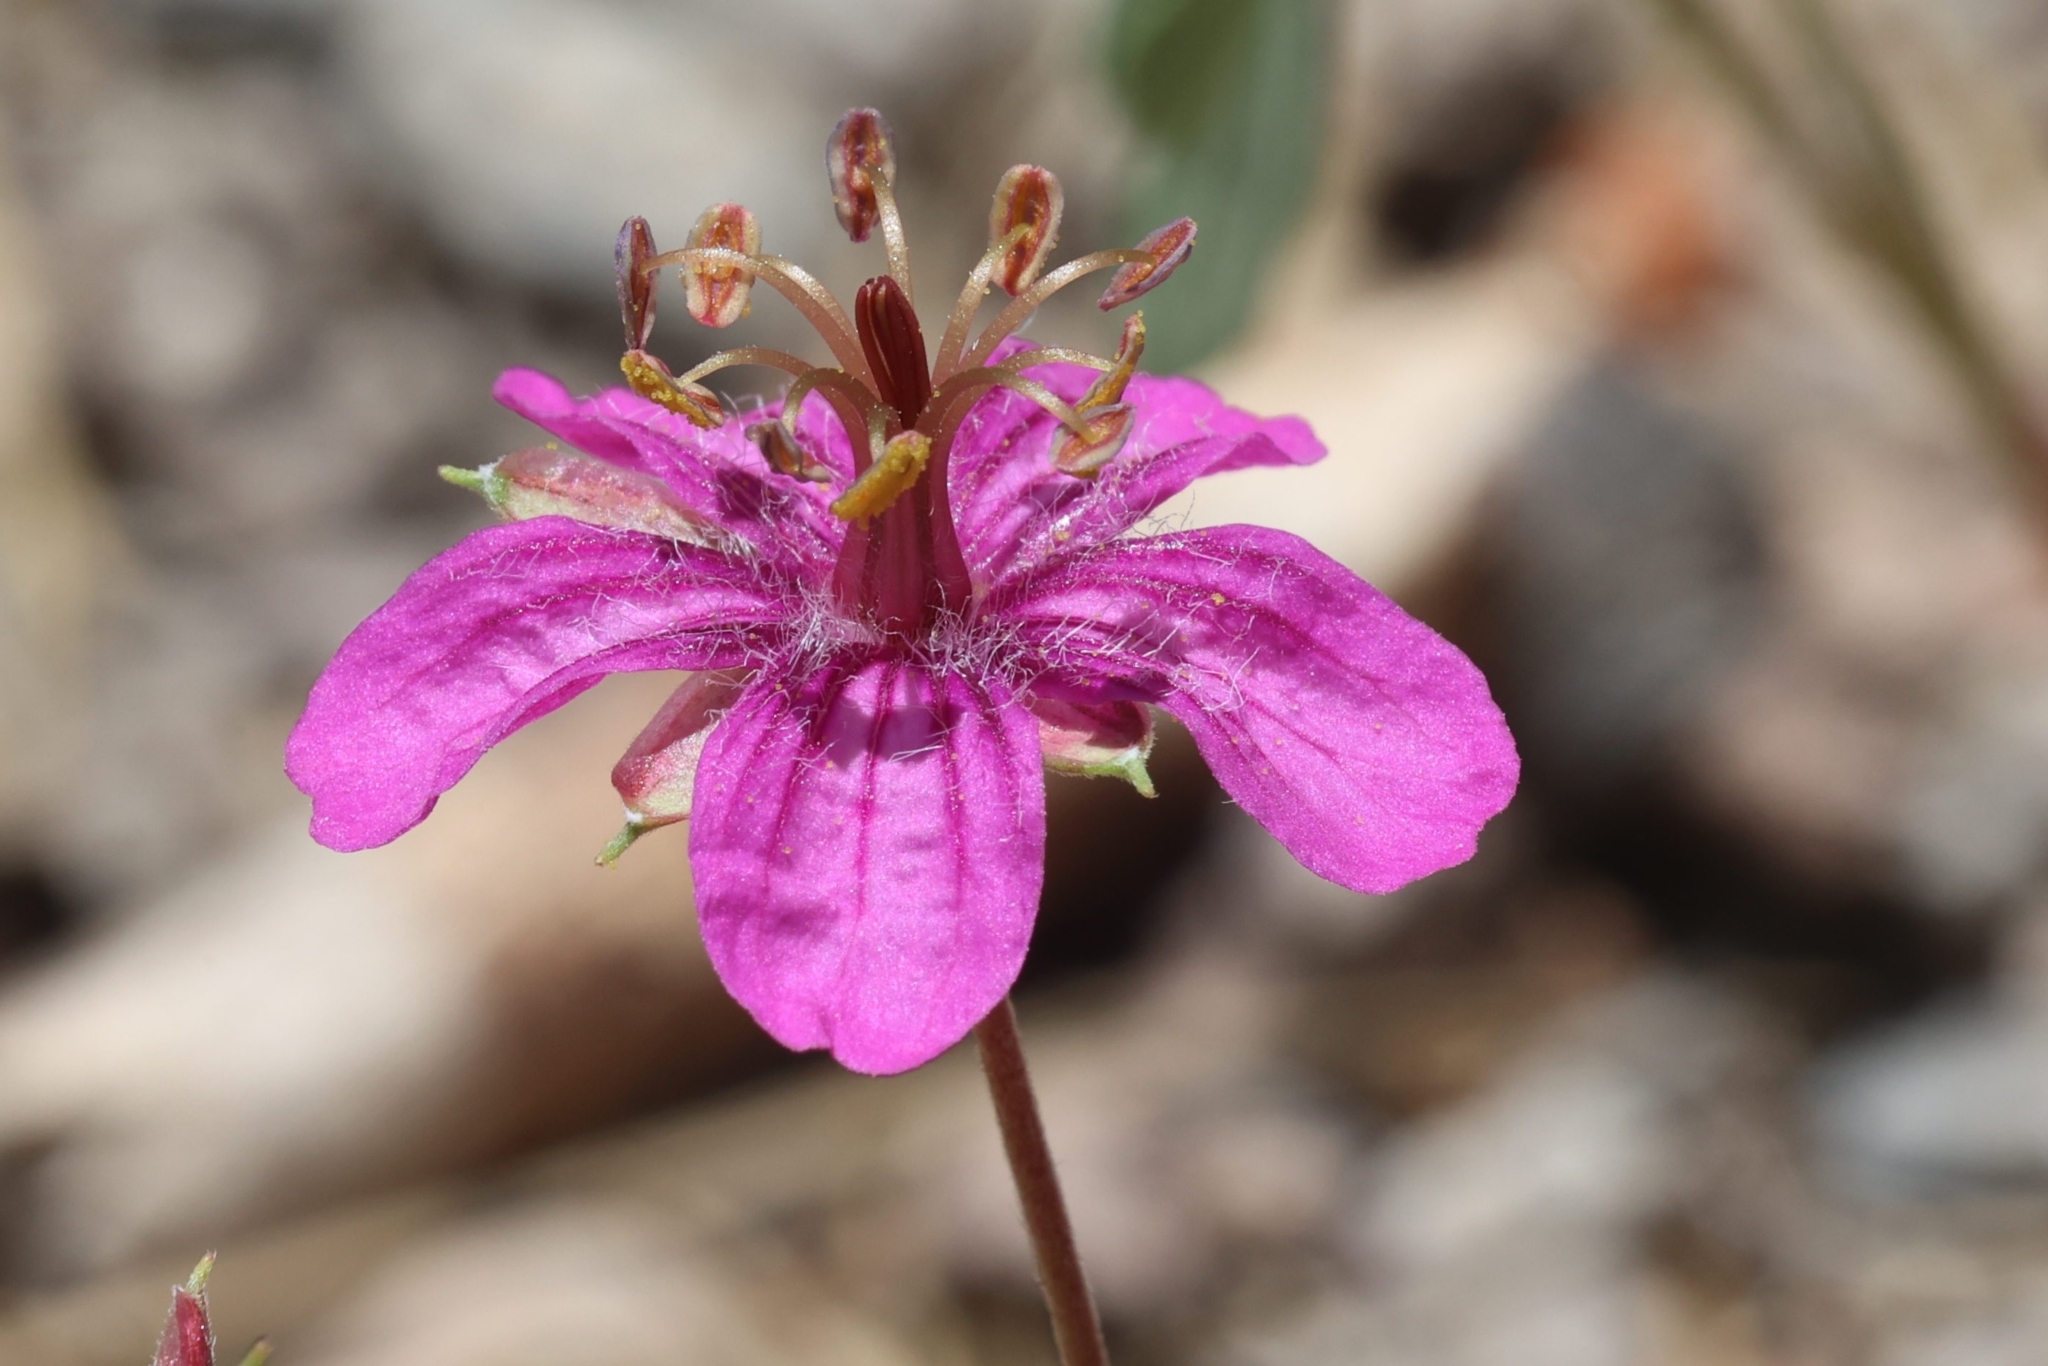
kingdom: Plantae
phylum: Tracheophyta
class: Magnoliopsida
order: Geraniales
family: Geraniaceae
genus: Geranium
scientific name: Geranium caespitosum
